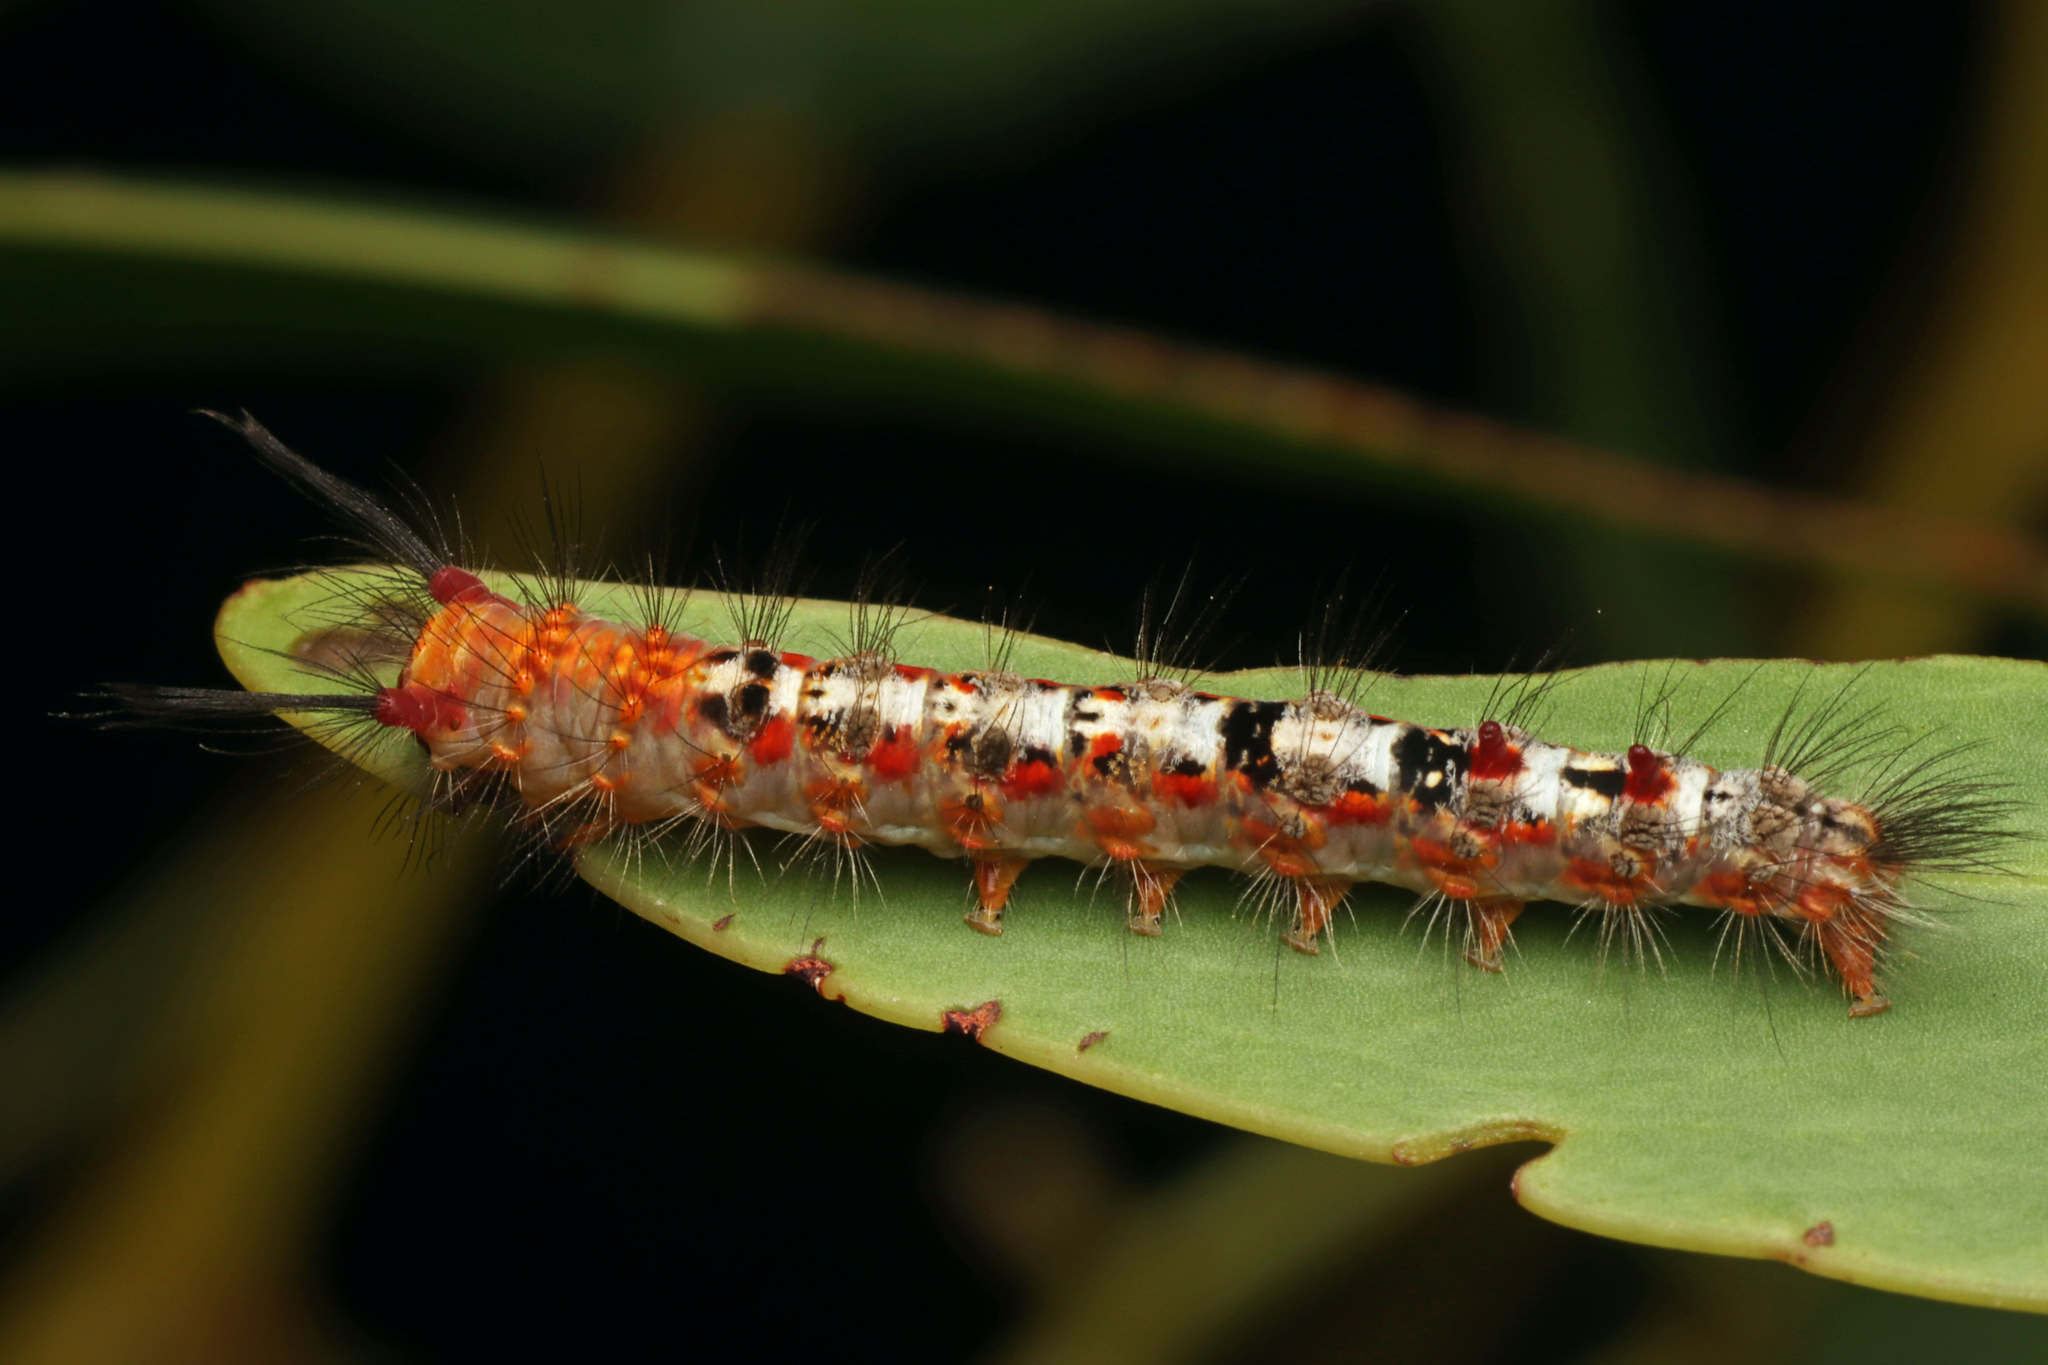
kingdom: Animalia
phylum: Arthropoda
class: Insecta
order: Lepidoptera
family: Erebidae
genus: Acyphas
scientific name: Acyphas semiochrea
